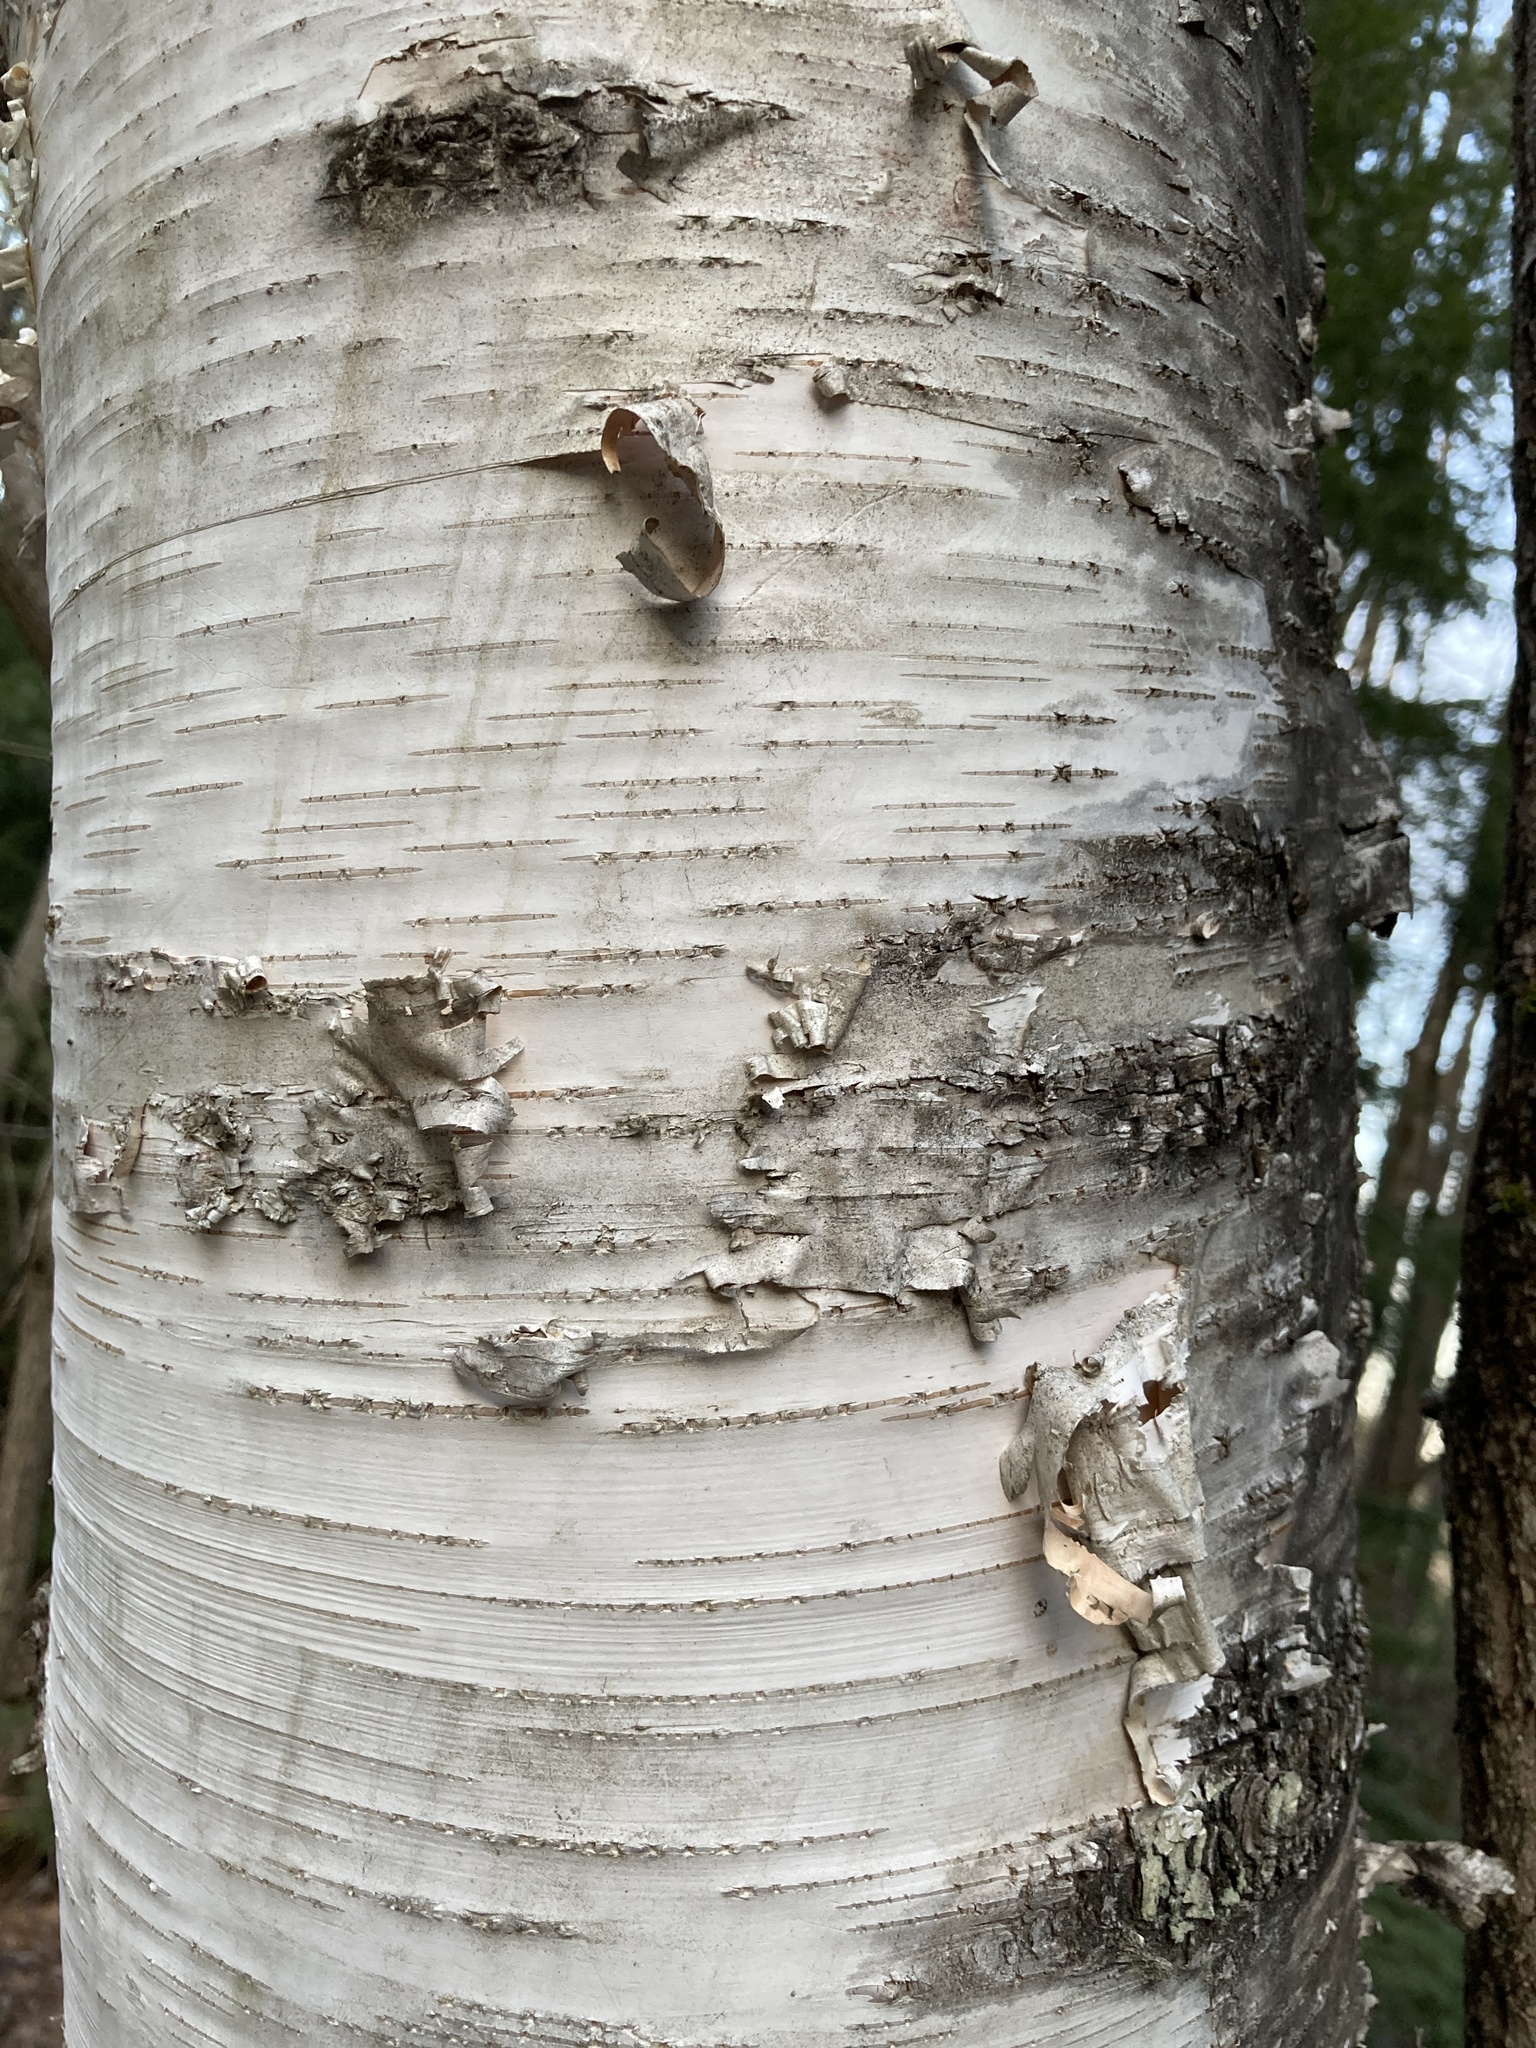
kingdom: Plantae
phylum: Tracheophyta
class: Magnoliopsida
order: Fagales
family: Betulaceae
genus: Betula
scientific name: Betula papyrifera
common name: Paper birch
